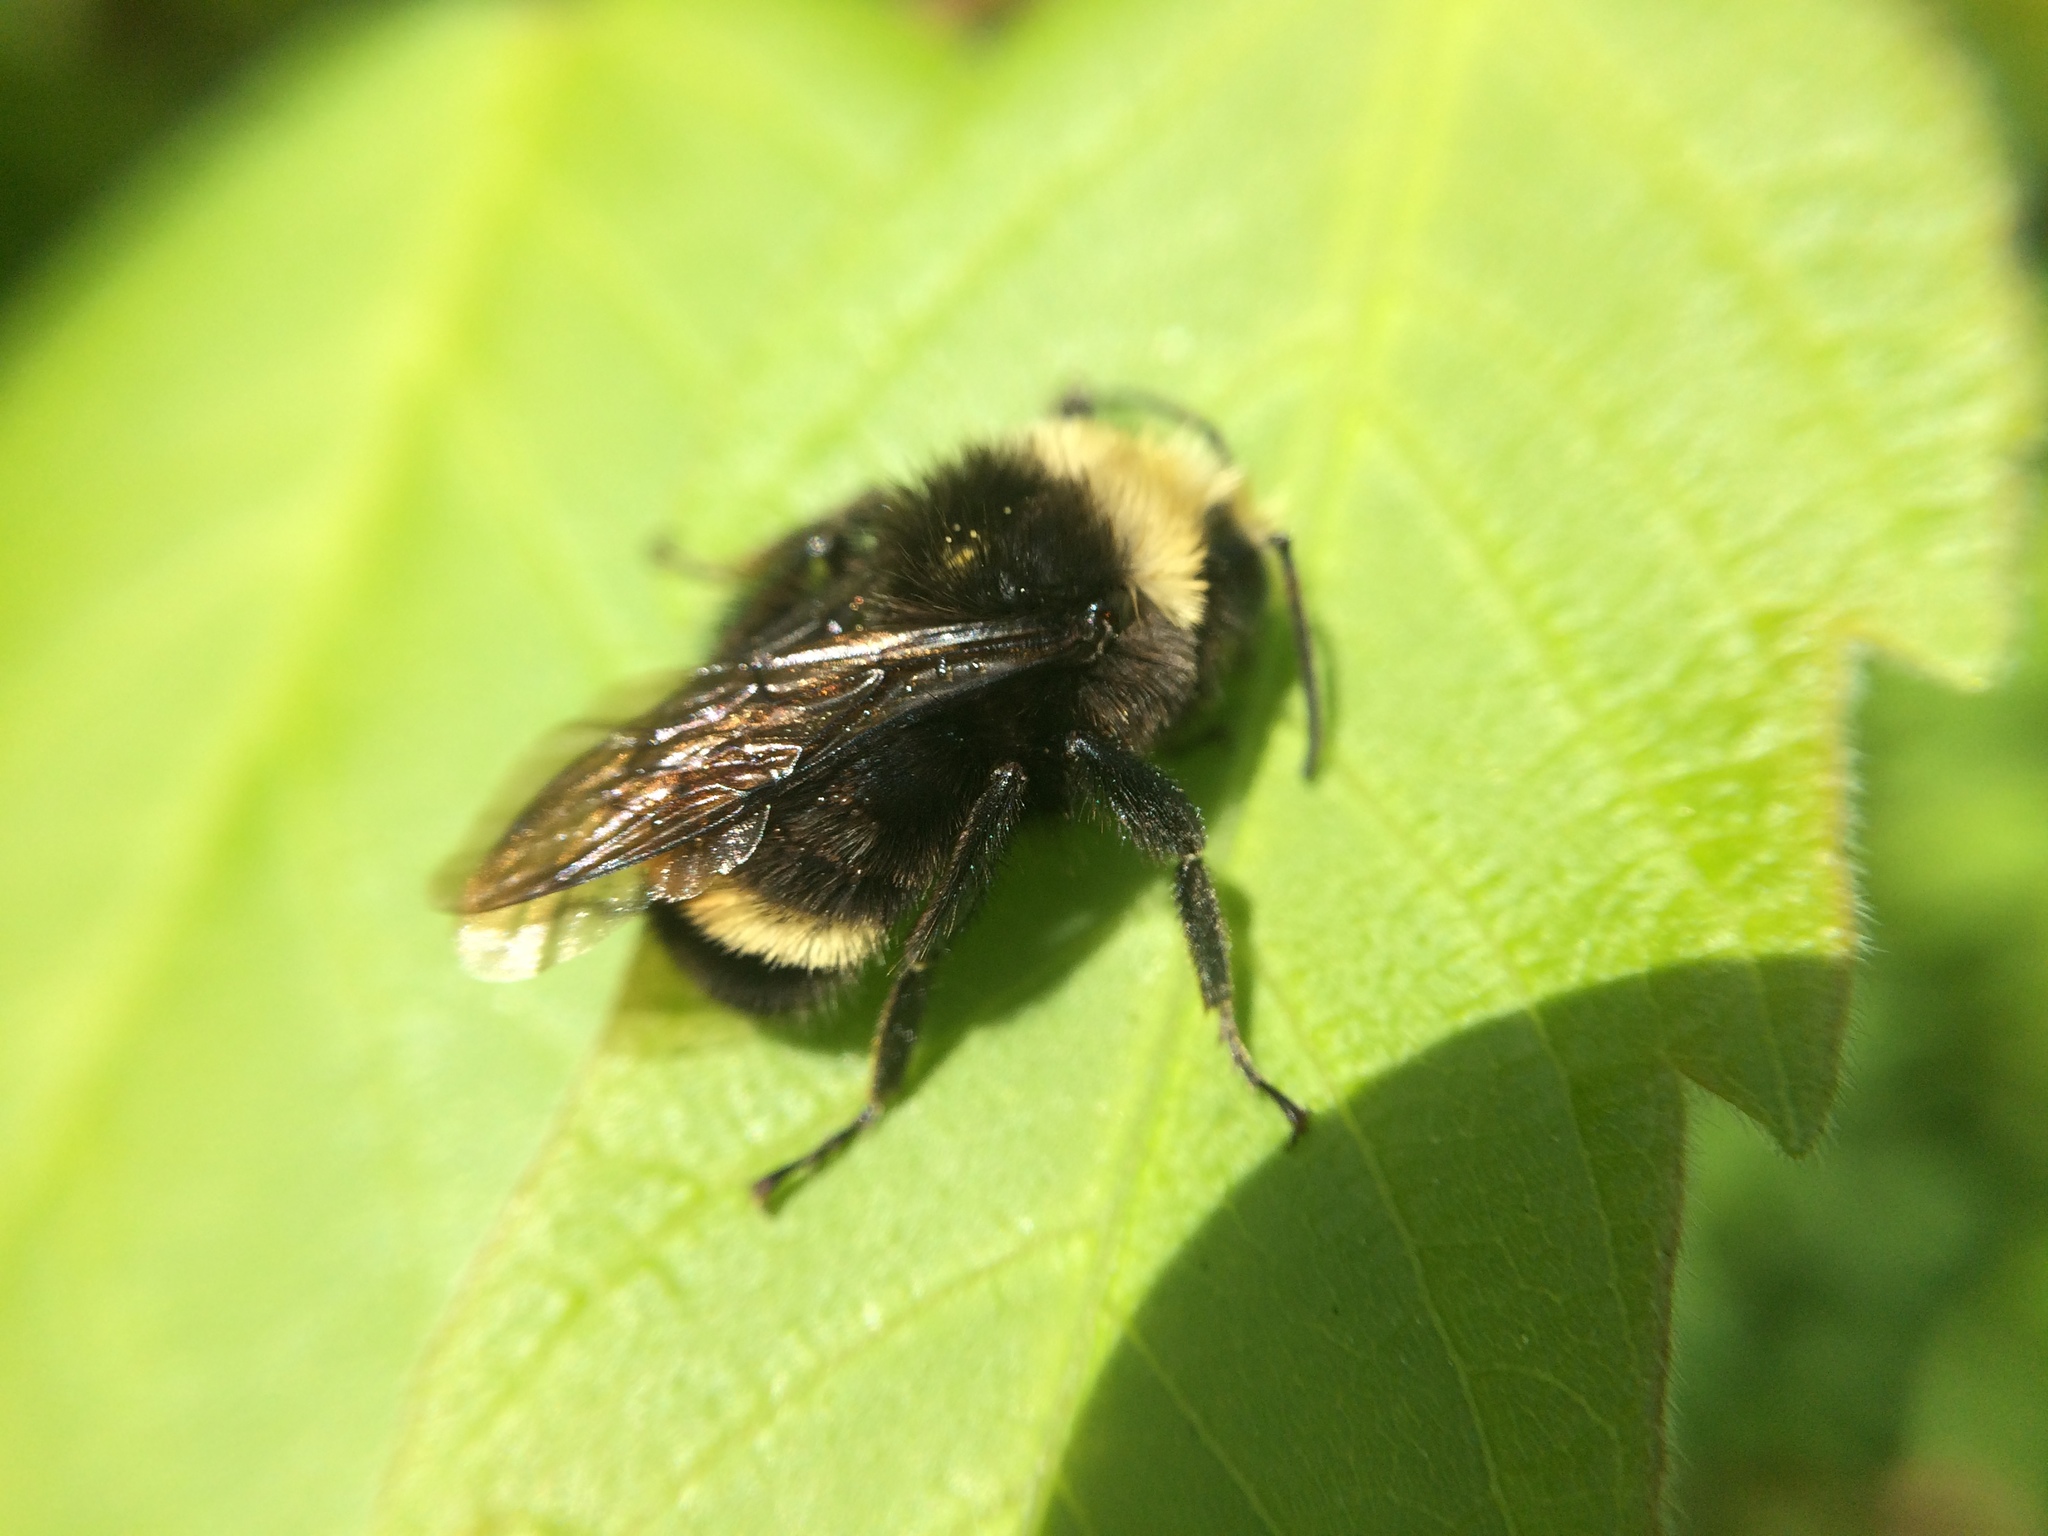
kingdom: Animalia
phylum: Arthropoda
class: Insecta
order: Hymenoptera
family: Apidae
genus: Bombus
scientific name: Bombus vosnesenskii
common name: Vosnesensky bumble bee
